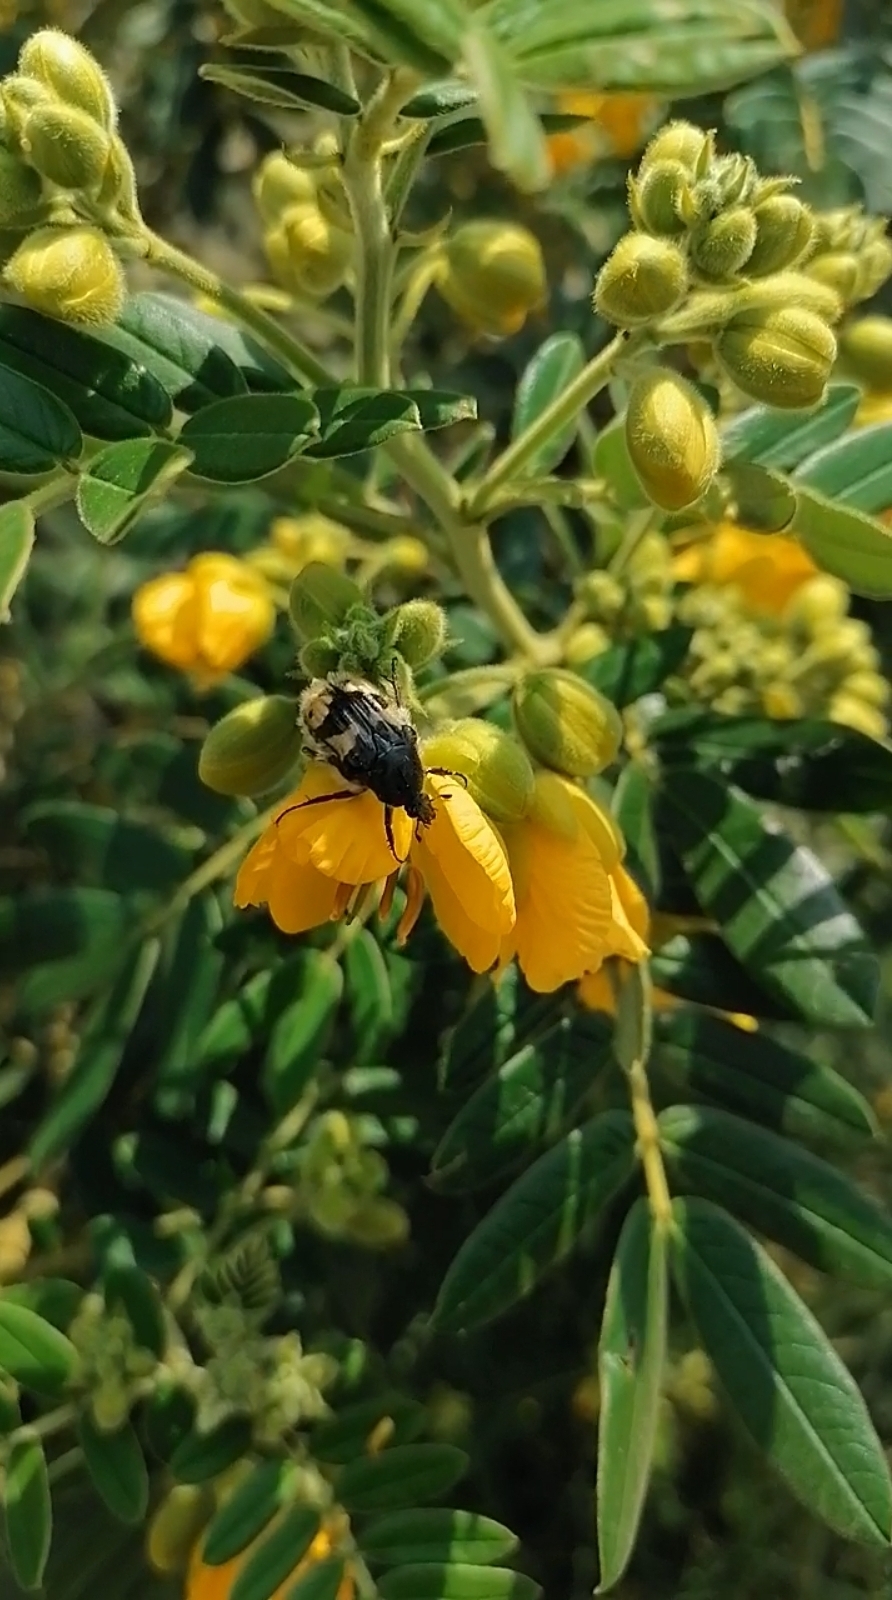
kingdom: Animalia
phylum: Arthropoda
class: Insecta
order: Coleoptera
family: Scarabaeidae
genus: Euphoria
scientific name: Euphoria basalis
